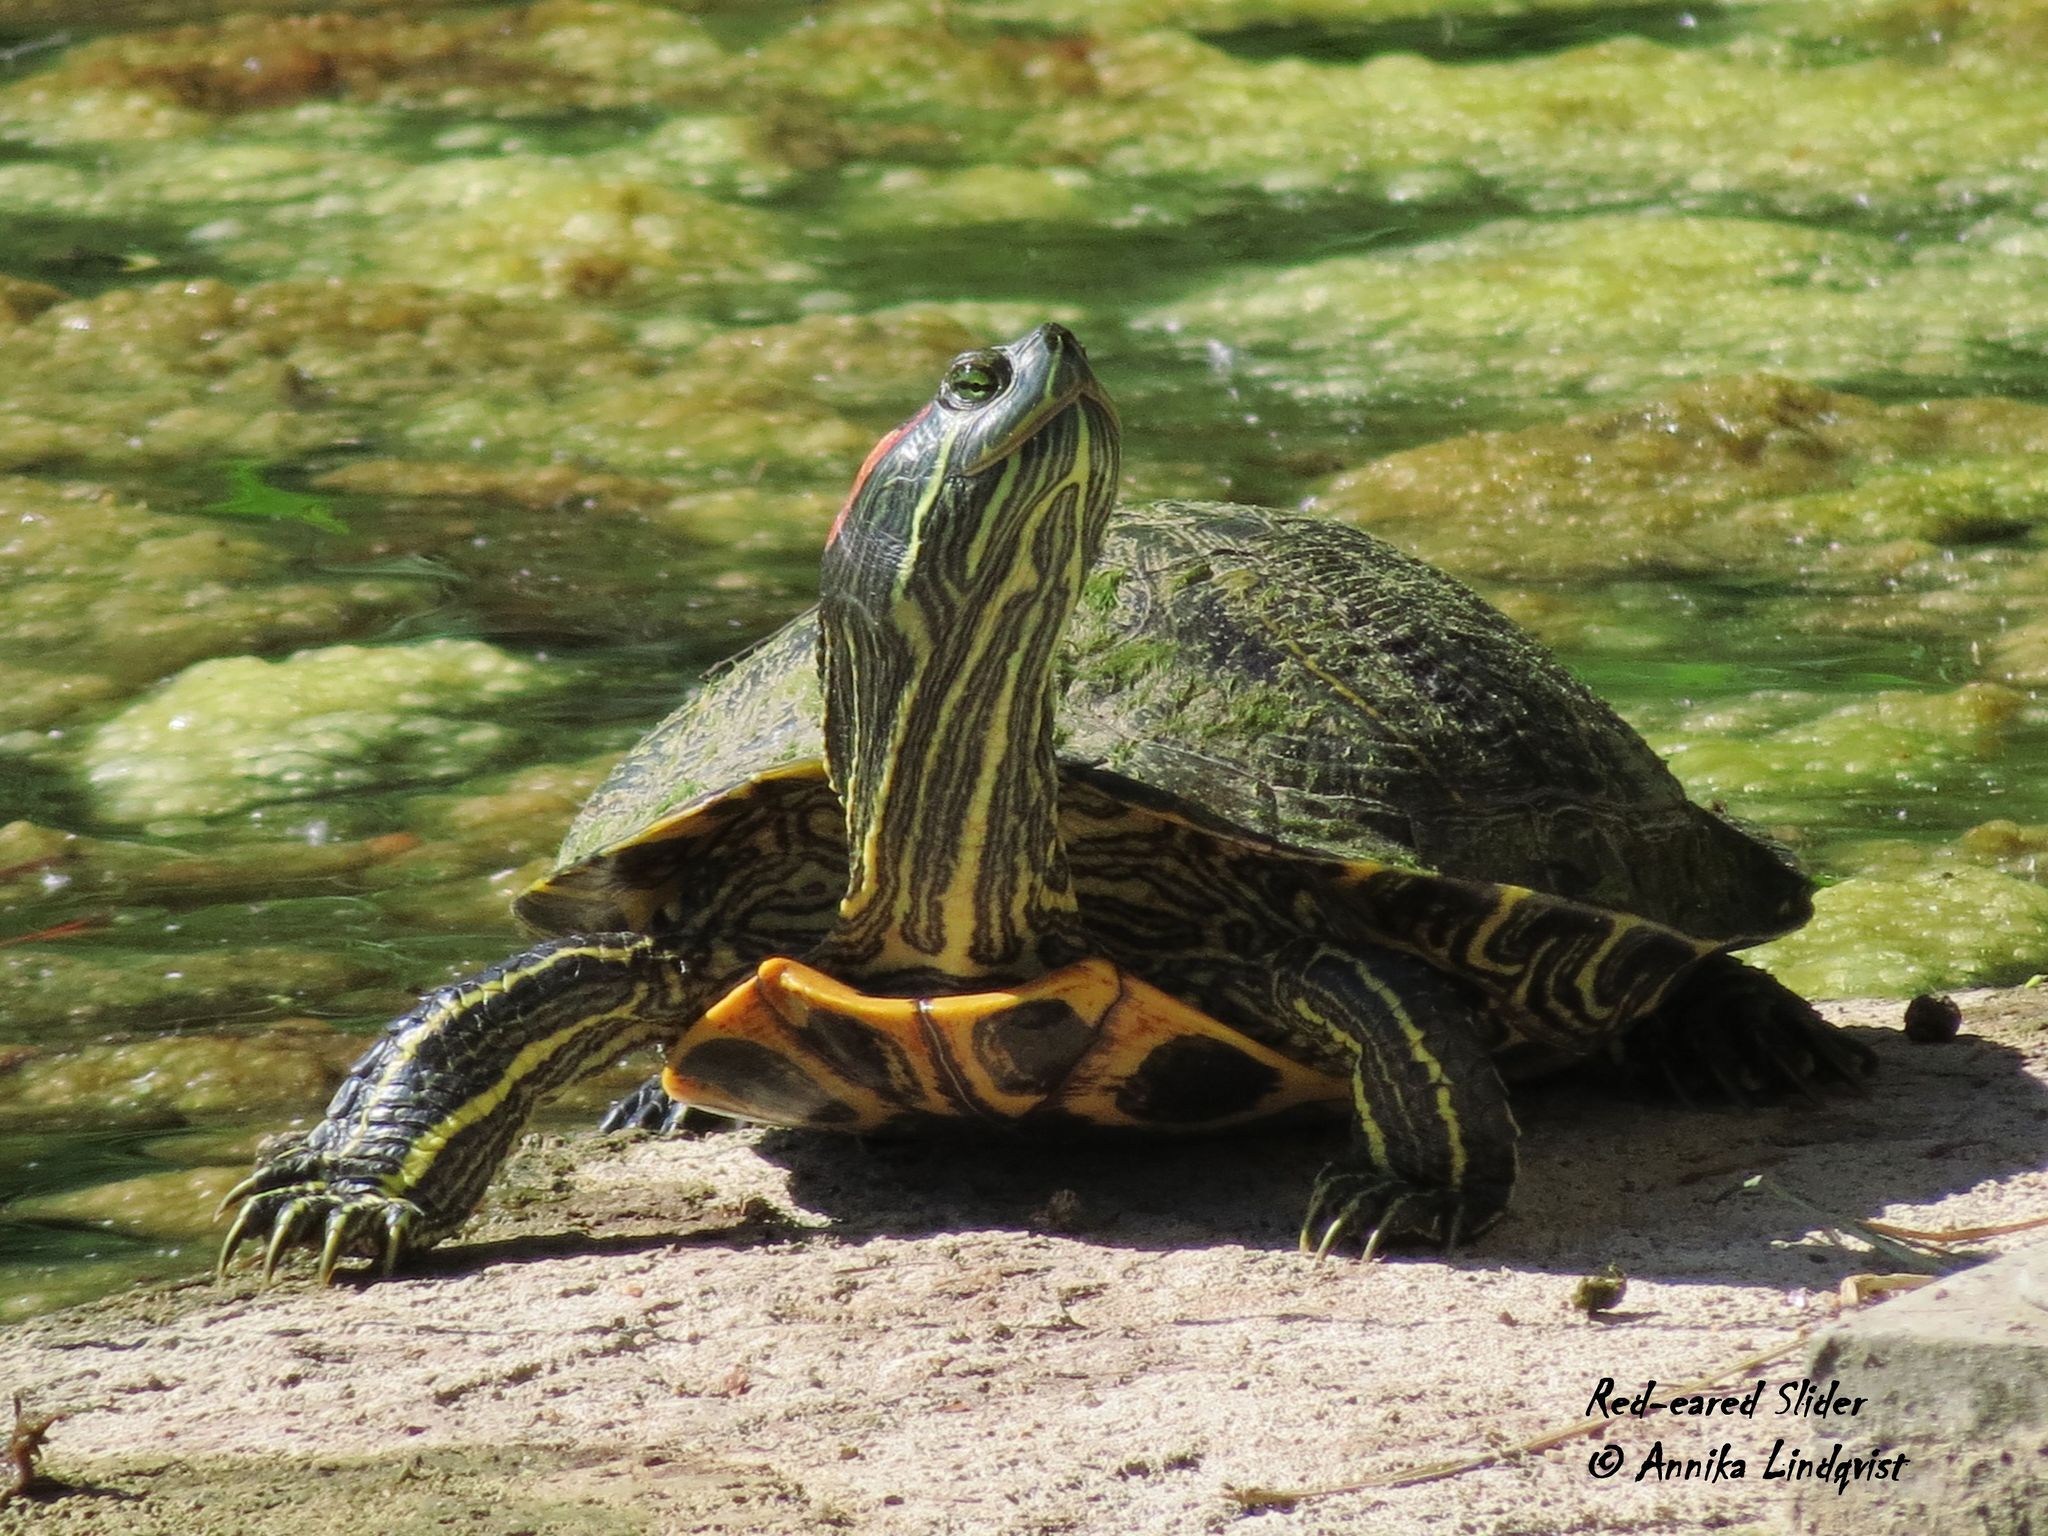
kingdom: Animalia
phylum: Chordata
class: Testudines
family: Emydidae
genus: Trachemys
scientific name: Trachemys scripta
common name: Slider
